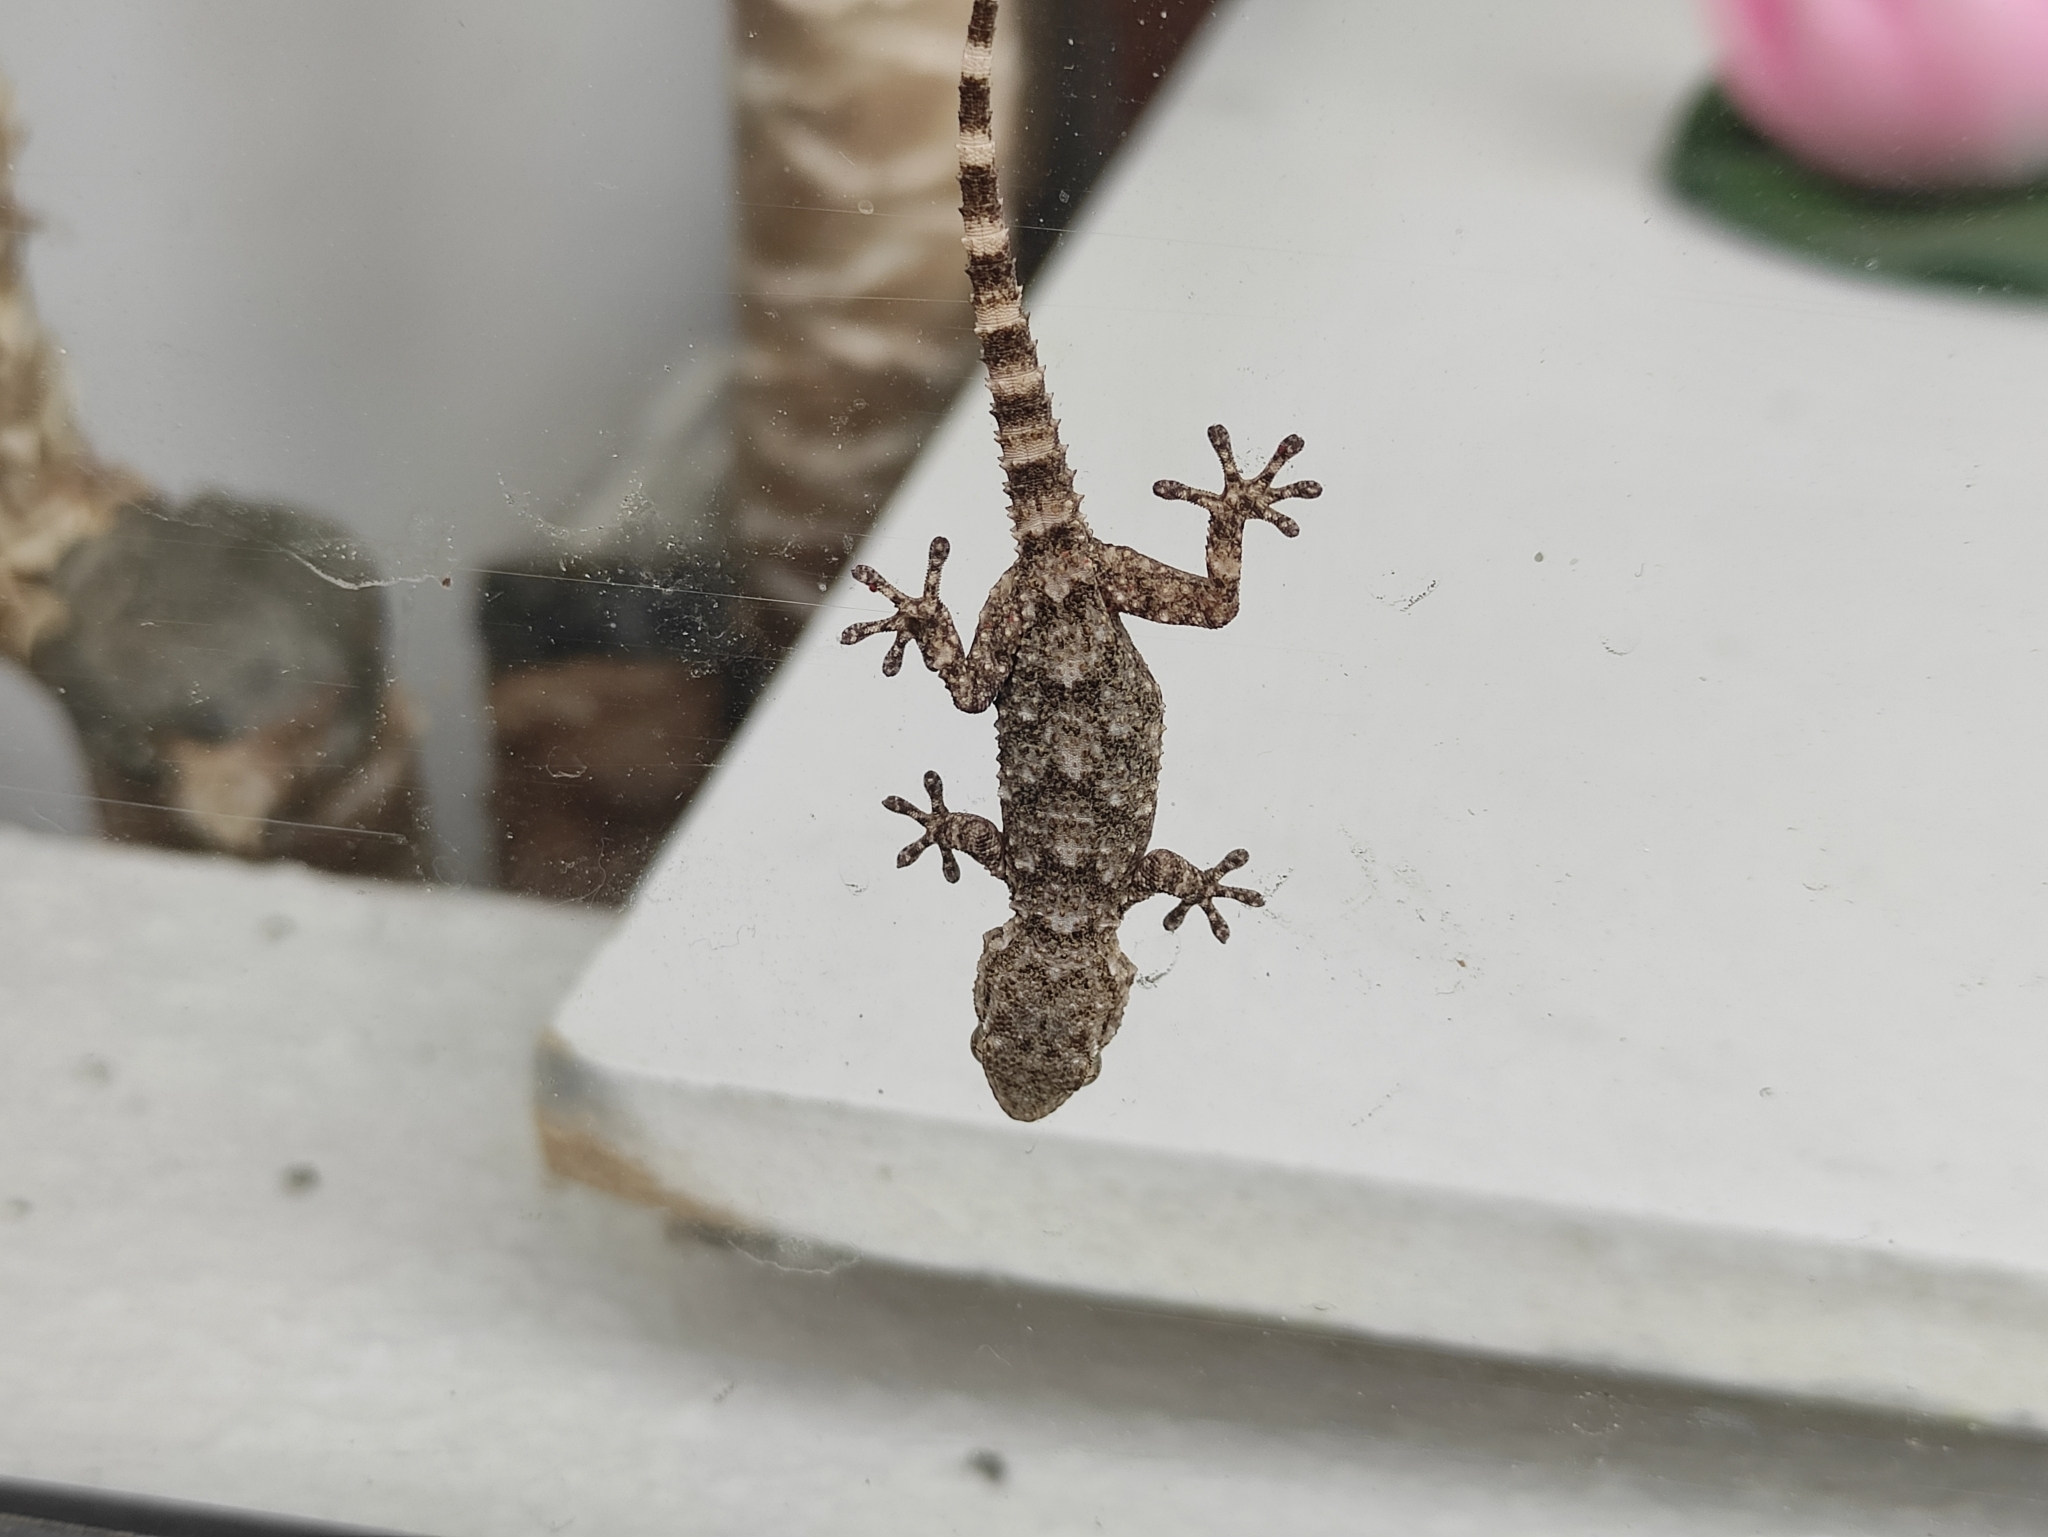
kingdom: Animalia
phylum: Chordata
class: Squamata
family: Phyllodactylidae
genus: Tarentola
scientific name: Tarentola mauritanica
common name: Moorish gecko
